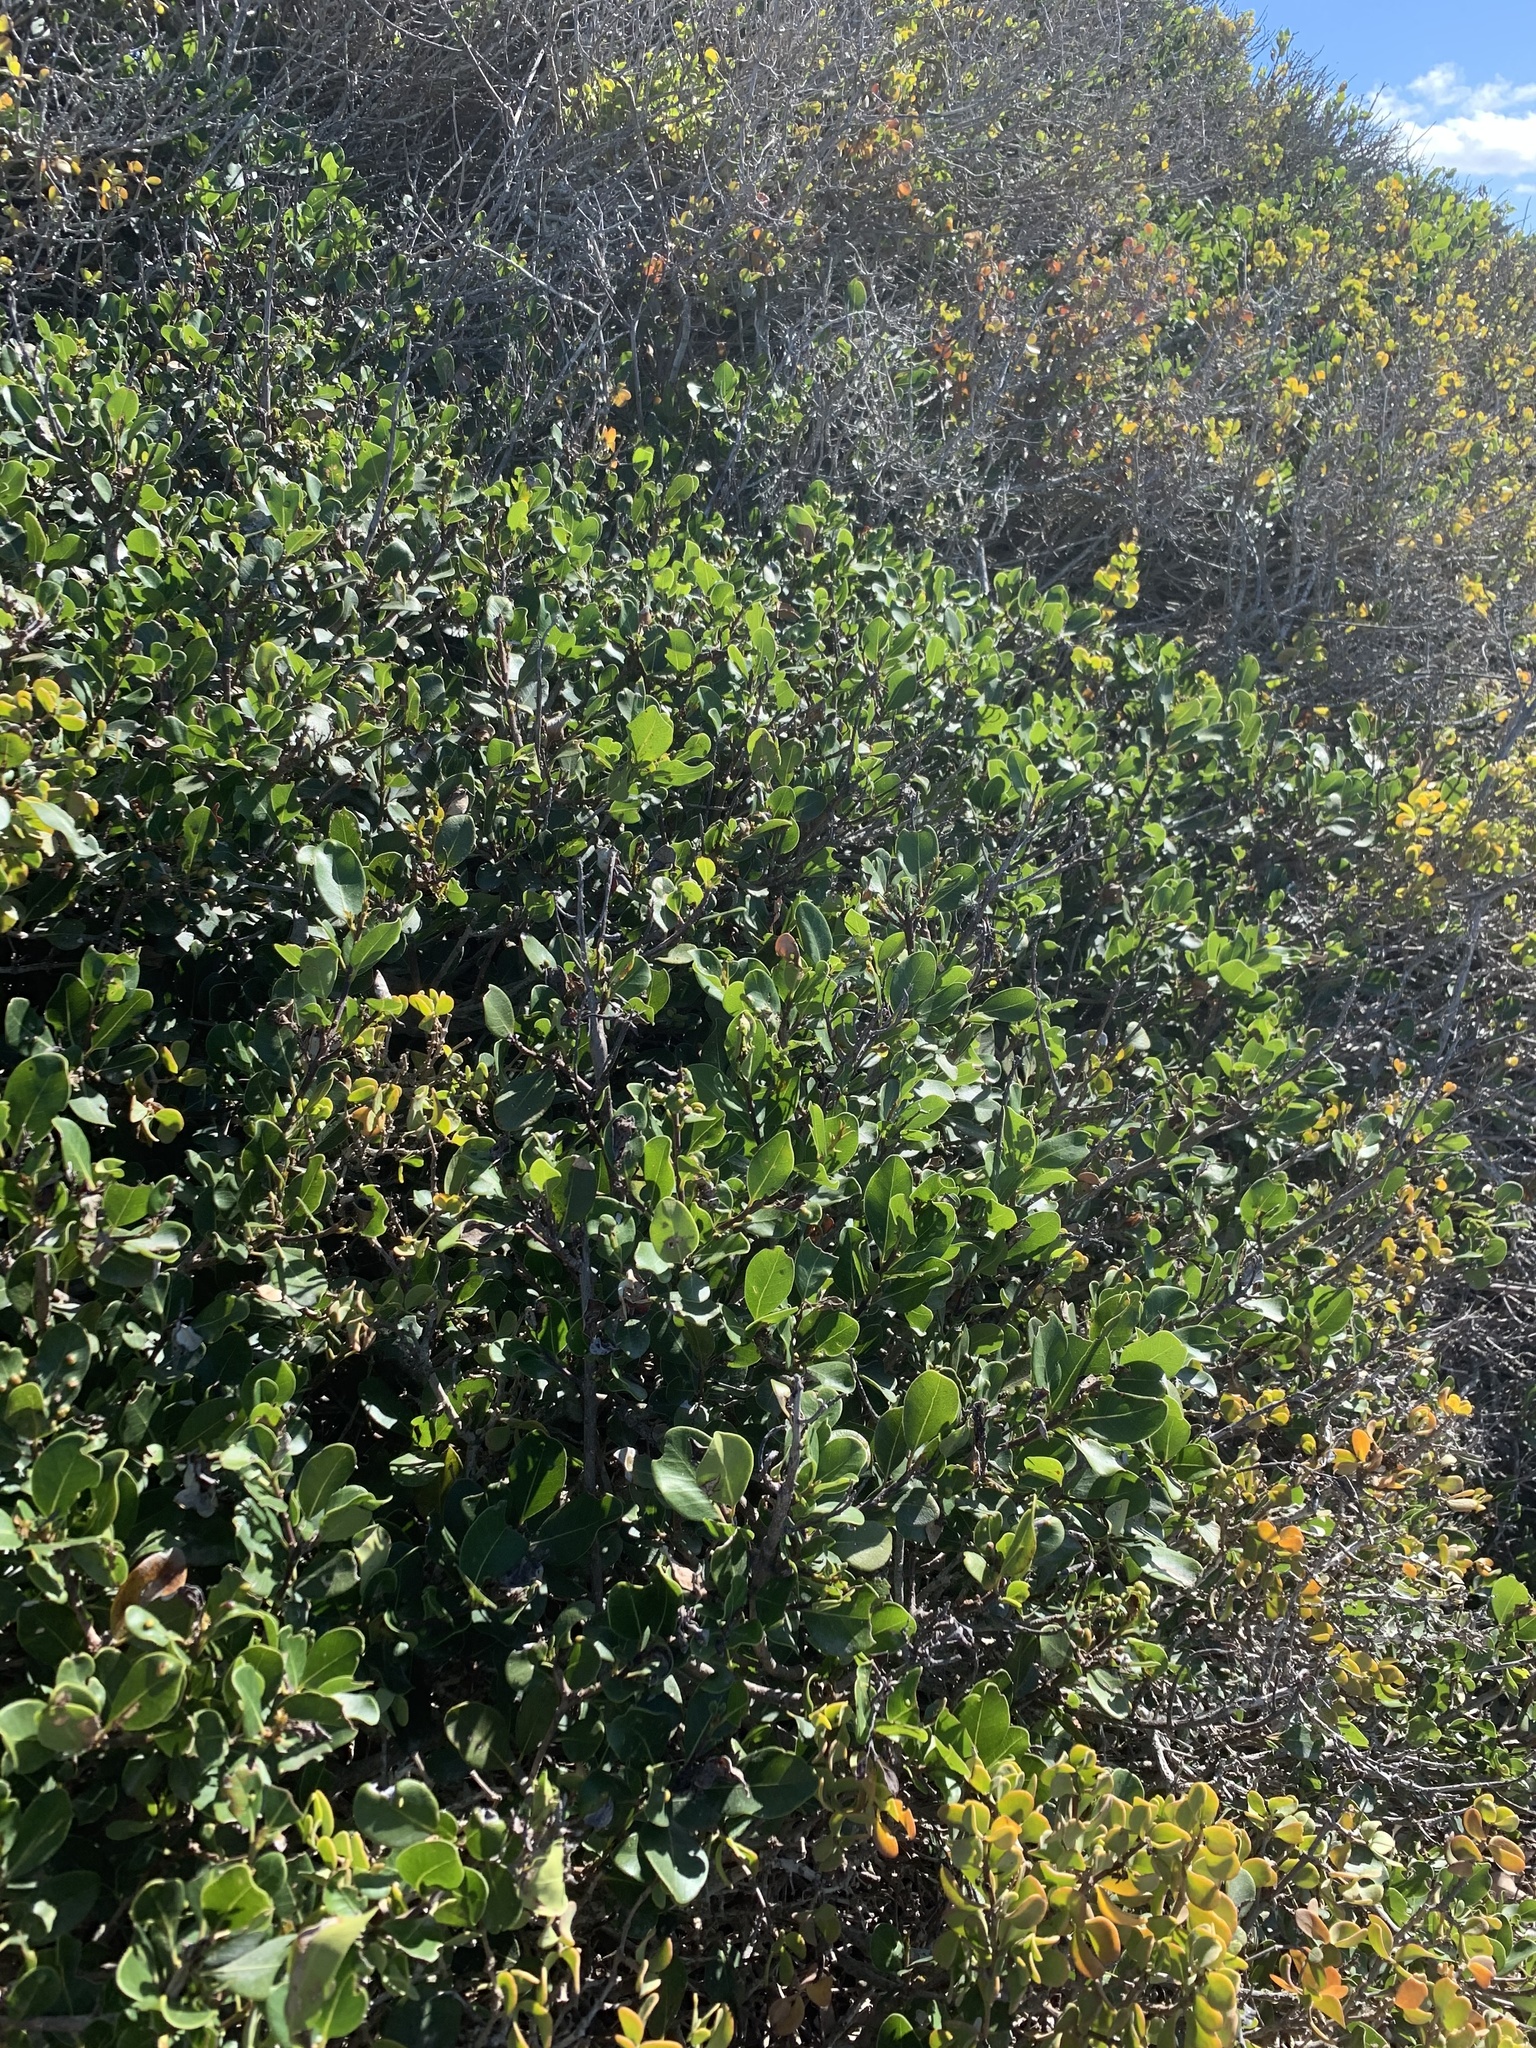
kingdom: Plantae
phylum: Tracheophyta
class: Magnoliopsida
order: Ericales
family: Sapotaceae
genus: Sideroxylon
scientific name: Sideroxylon inerme
